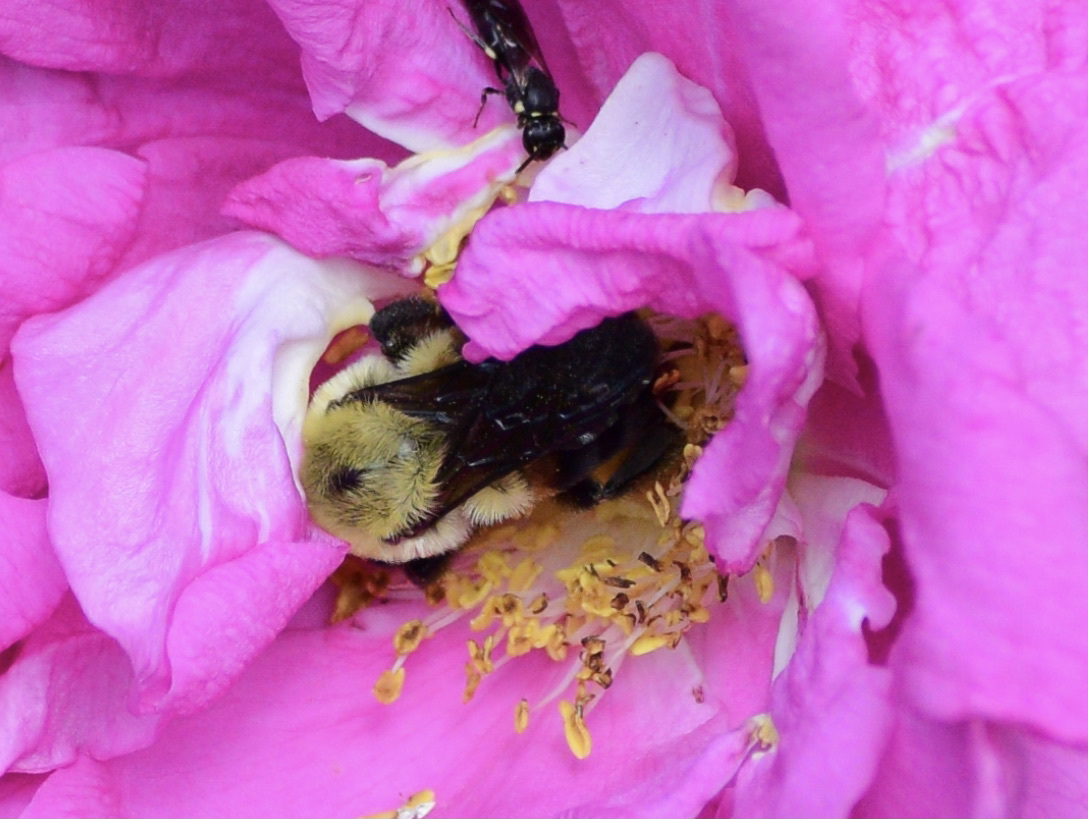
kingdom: Animalia
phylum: Arthropoda
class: Insecta
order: Hymenoptera
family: Apidae
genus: Bombus
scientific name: Bombus griseocollis
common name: Brown-belted bumble bee
